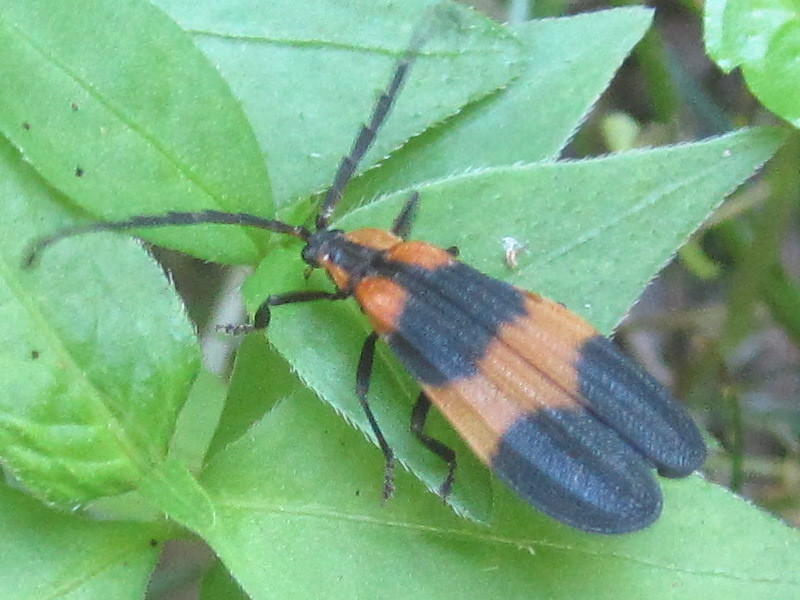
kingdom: Animalia
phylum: Arthropoda
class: Insecta
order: Coleoptera
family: Lycidae
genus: Calopteron
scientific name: Calopteron reticulatum
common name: Banded net-winged beetle
